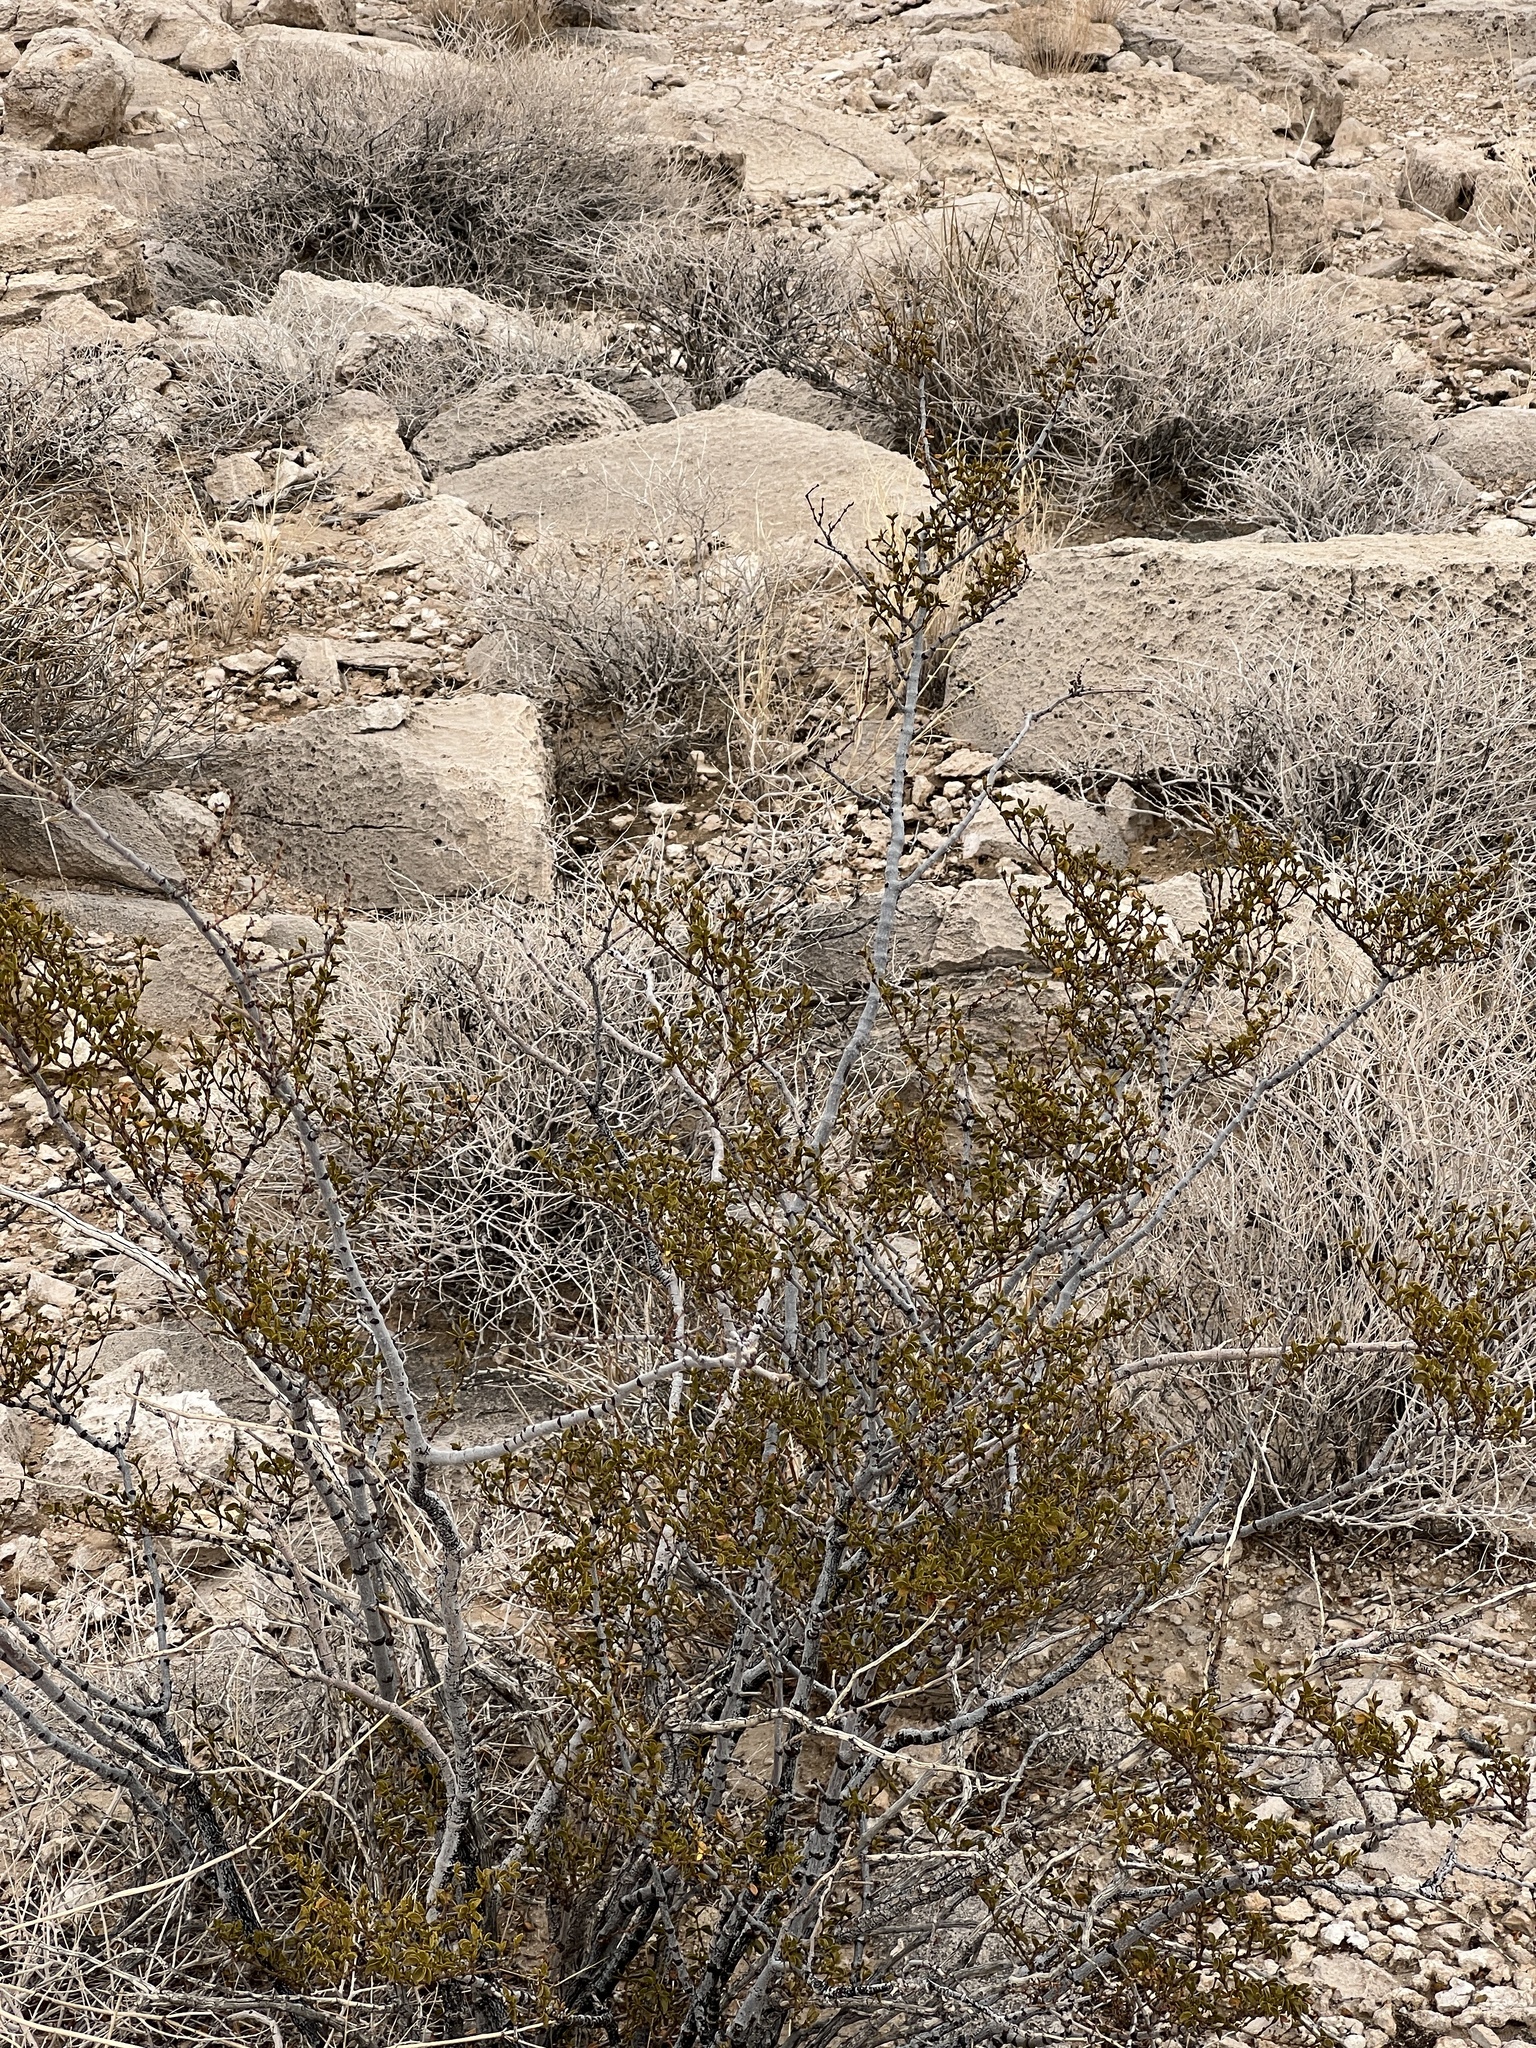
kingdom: Plantae
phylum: Tracheophyta
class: Magnoliopsida
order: Zygophyllales
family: Zygophyllaceae
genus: Larrea
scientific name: Larrea tridentata
